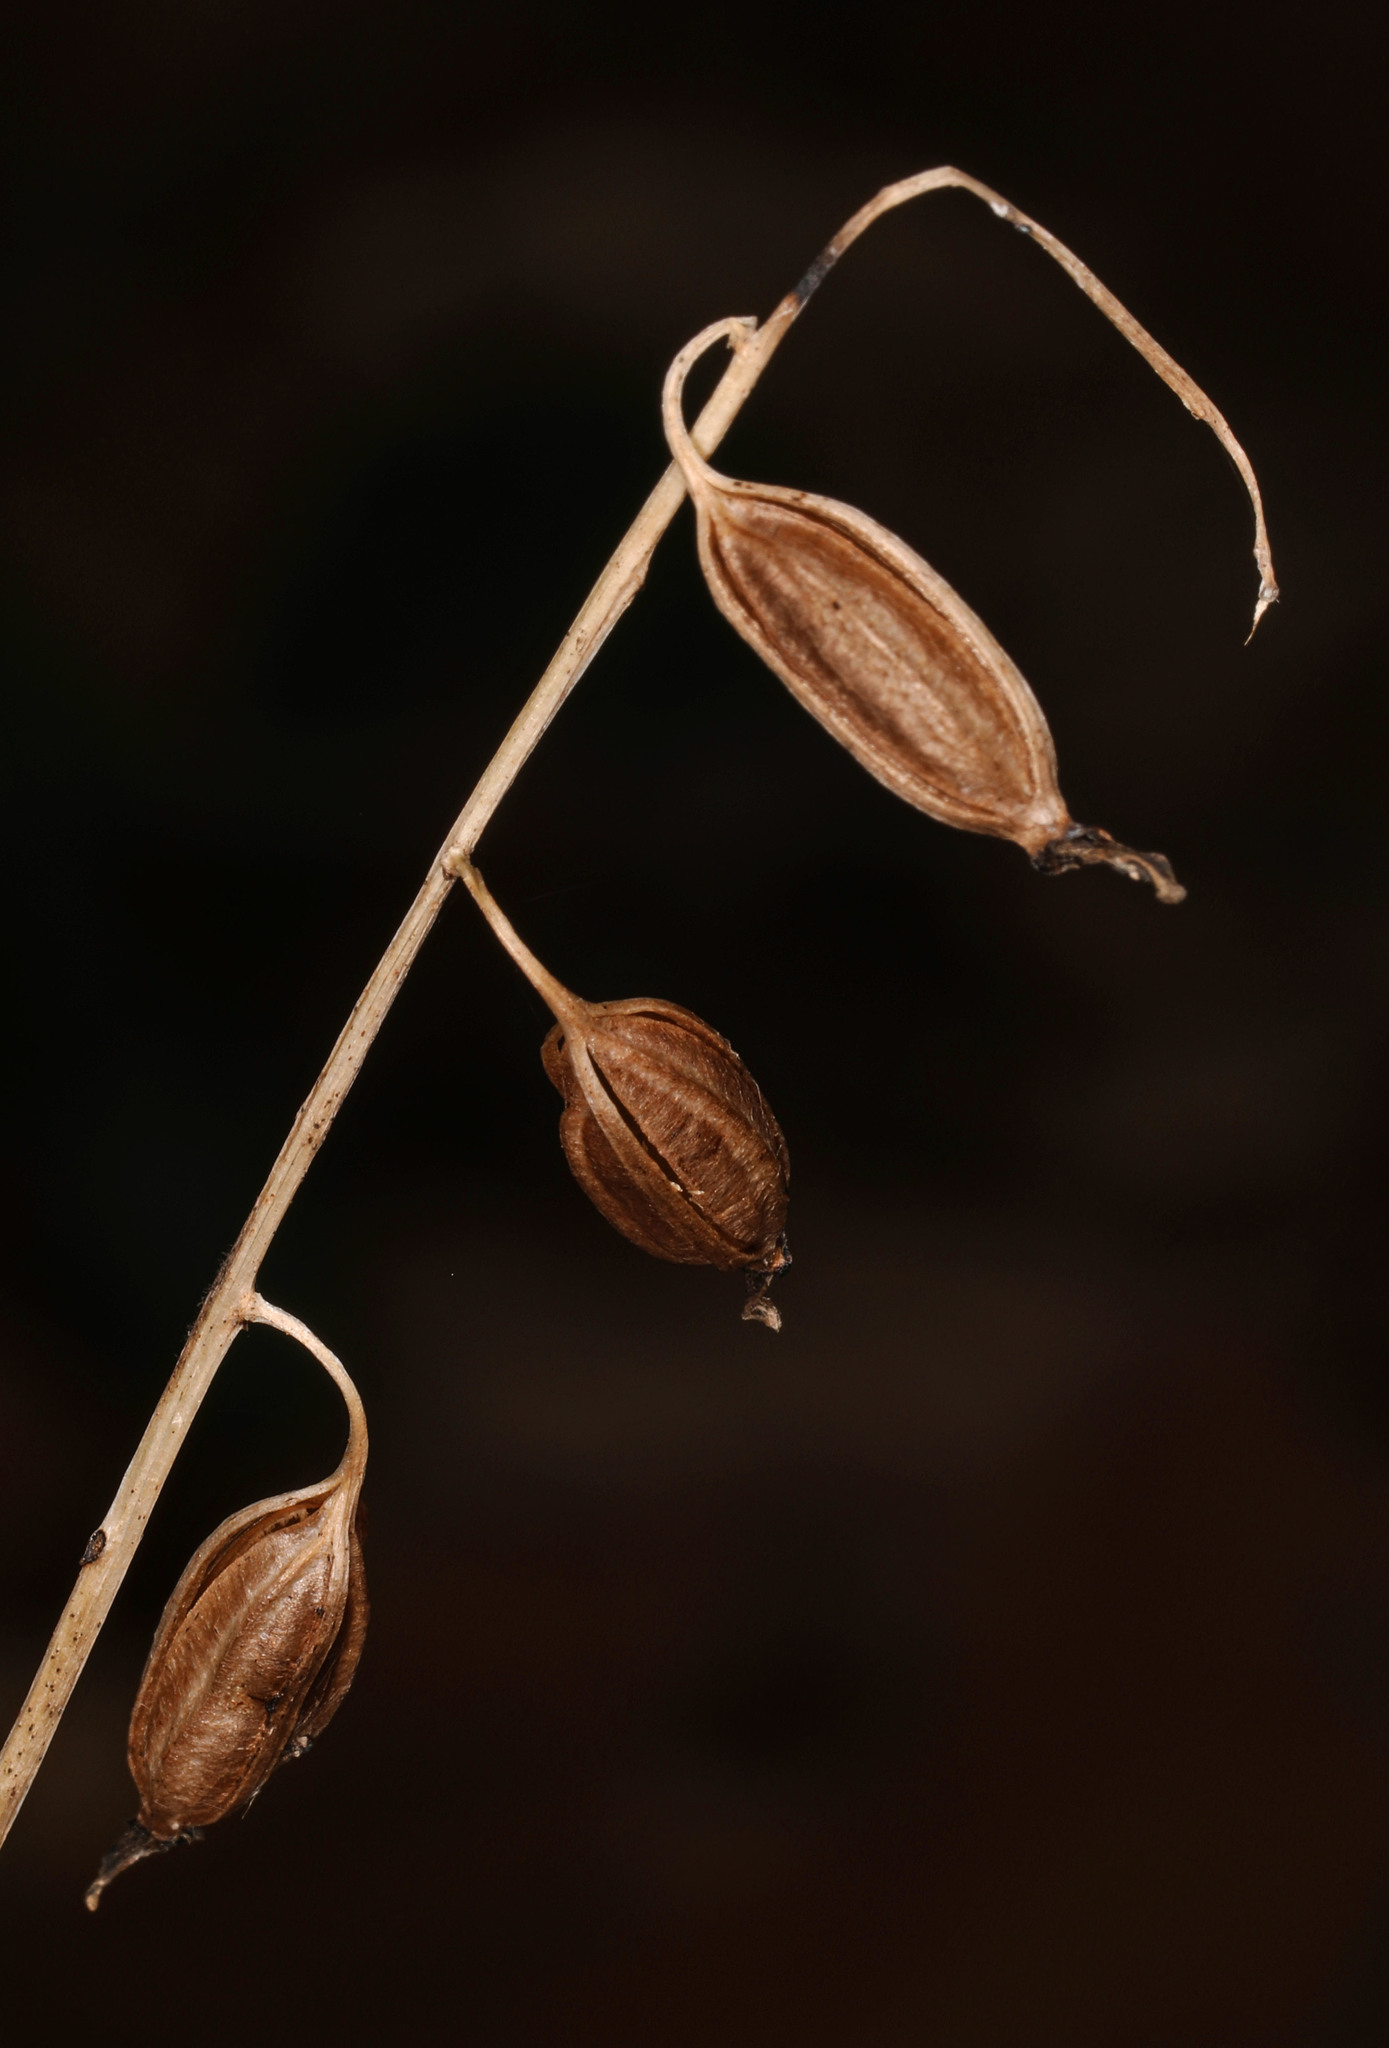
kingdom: Plantae
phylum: Tracheophyta
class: Liliopsida
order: Asparagales
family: Orchidaceae
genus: Tipularia
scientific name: Tipularia discolor
